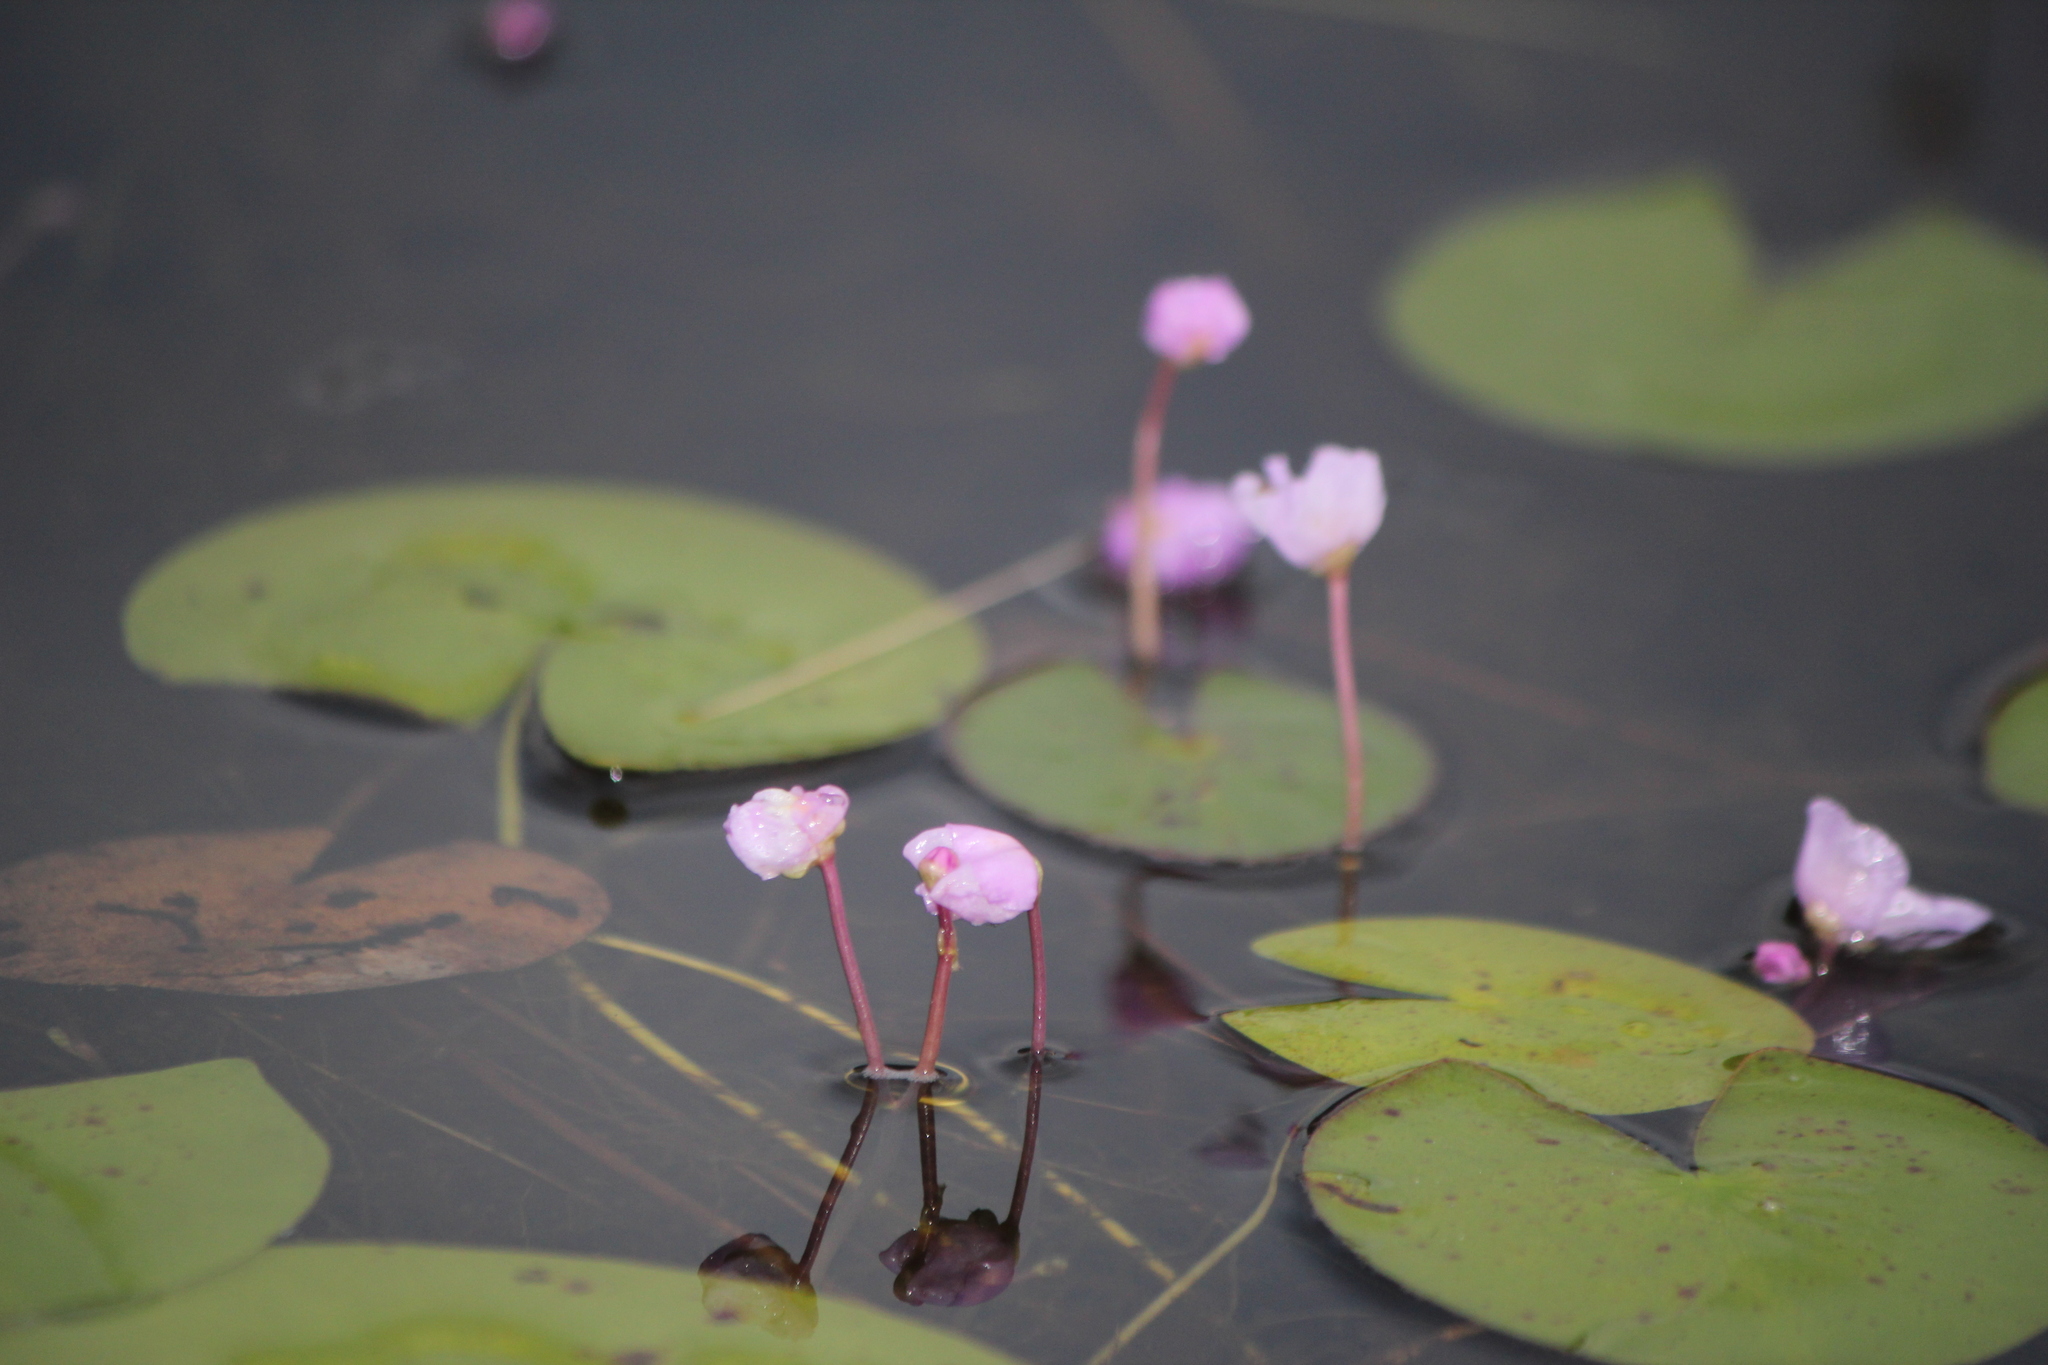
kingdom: Plantae
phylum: Tracheophyta
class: Magnoliopsida
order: Lamiales
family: Lentibulariaceae
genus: Utricularia
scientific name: Utricularia purpurea
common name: Eastern purple bladderwort
